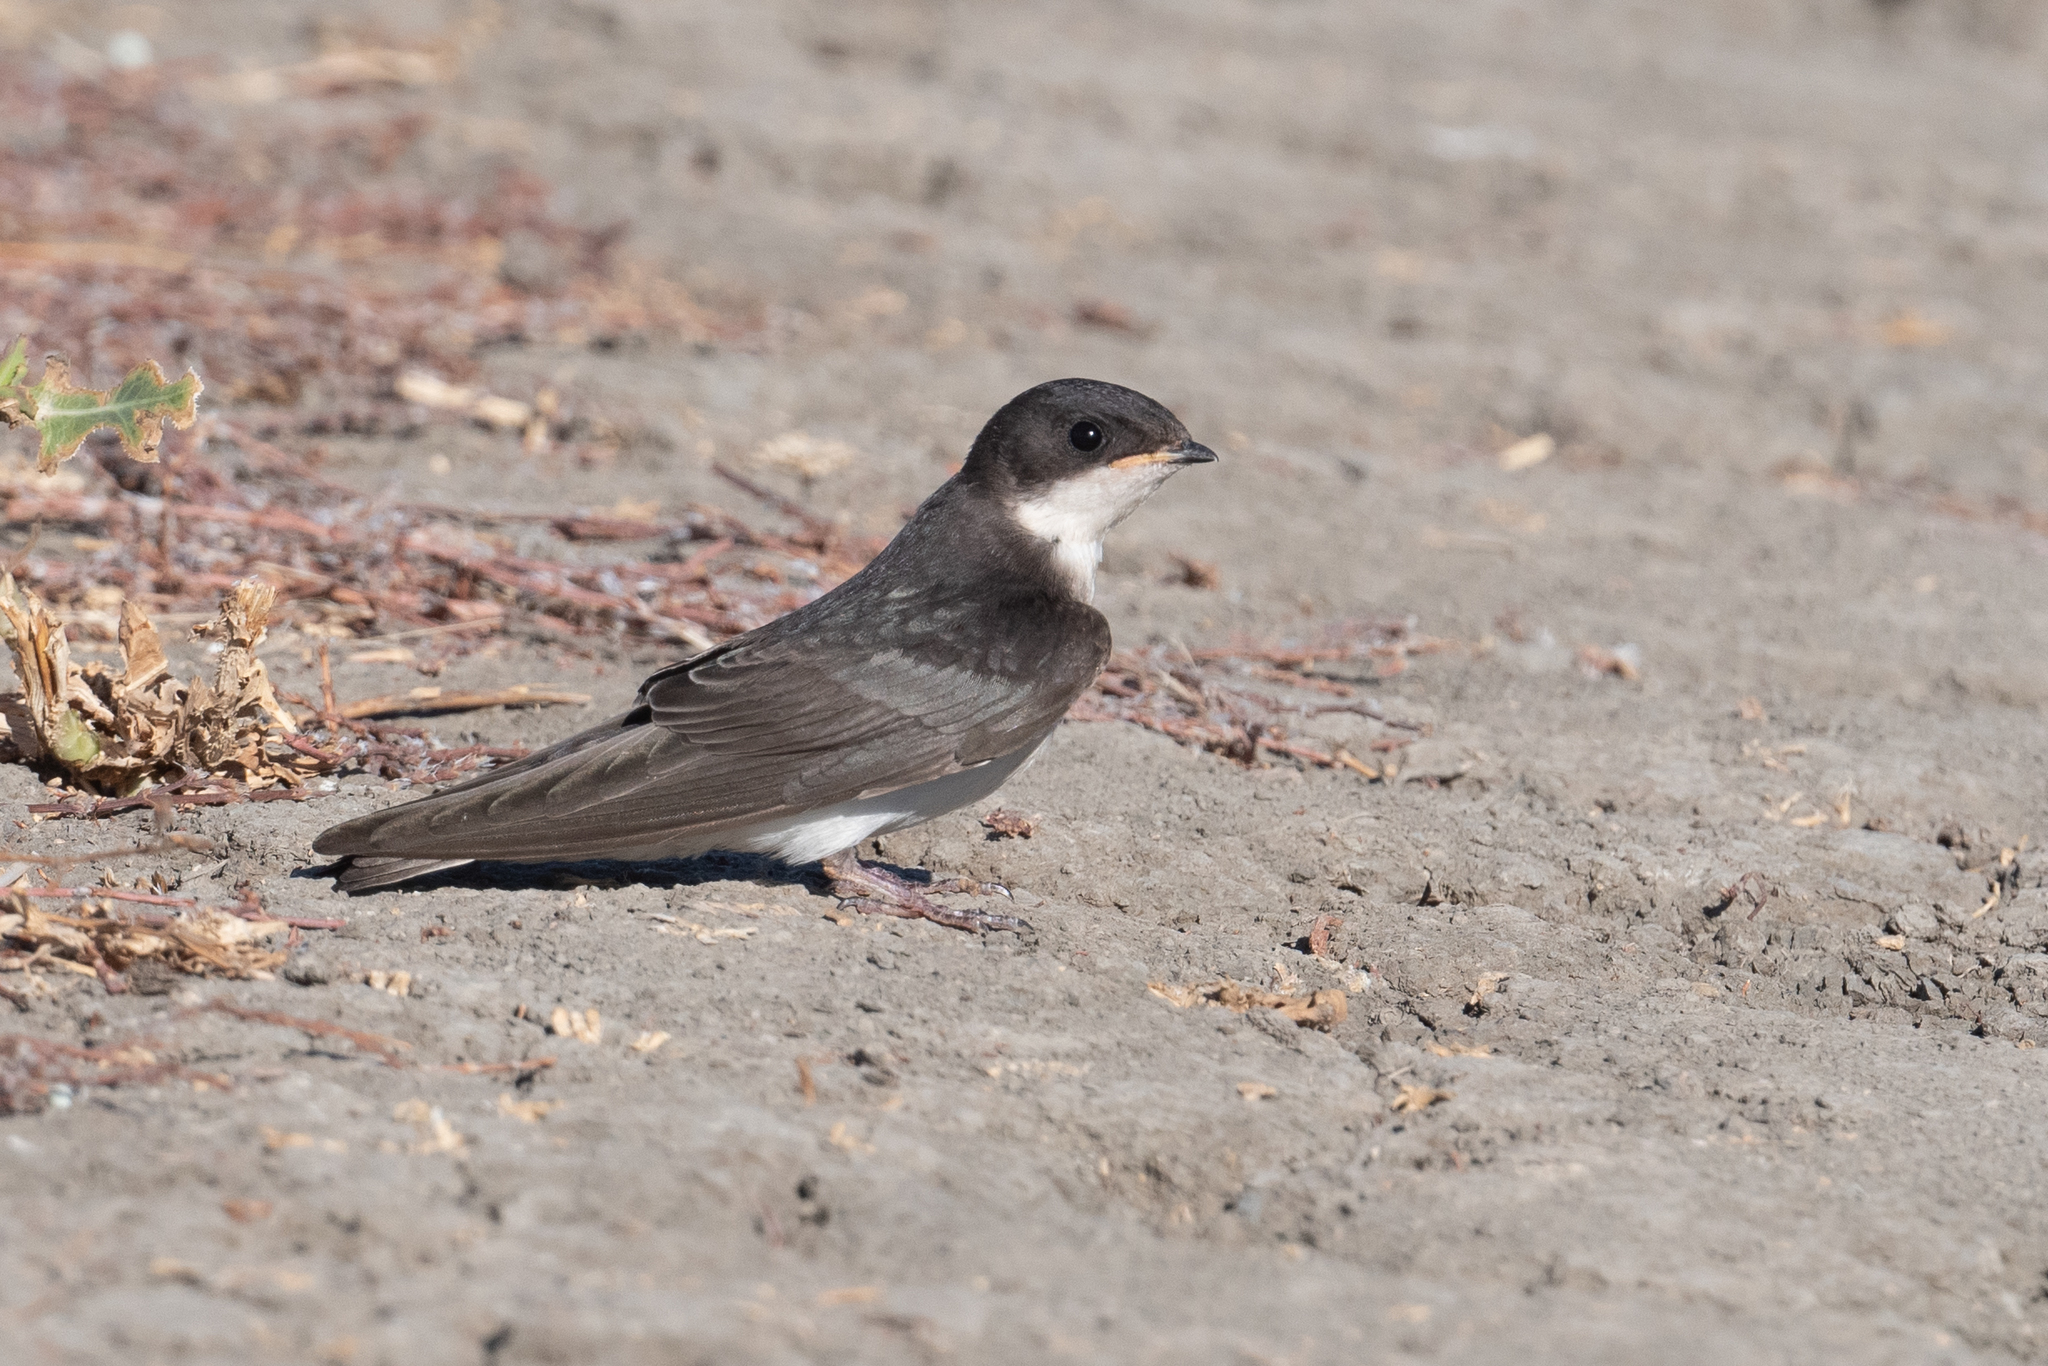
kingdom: Animalia
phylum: Chordata
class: Aves
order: Passeriformes
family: Hirundinidae
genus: Tachycineta
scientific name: Tachycineta bicolor
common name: Tree swallow
